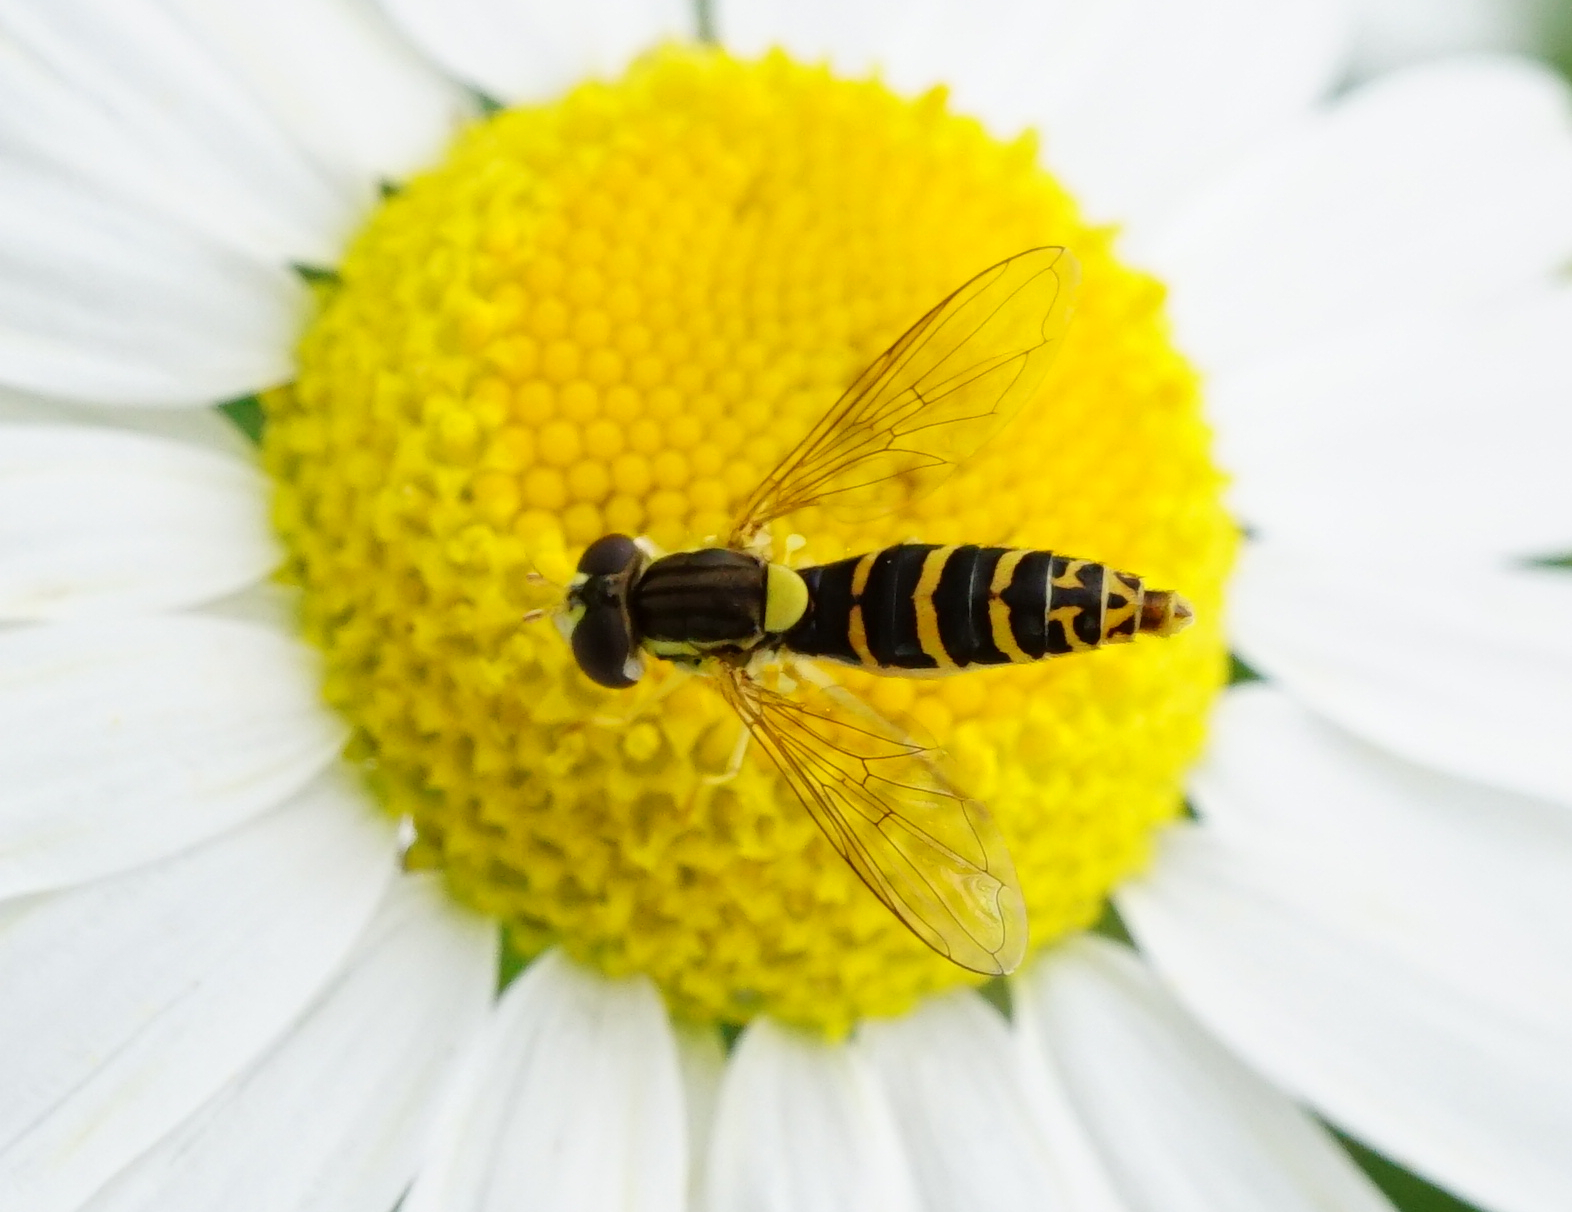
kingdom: Animalia
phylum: Arthropoda
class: Insecta
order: Diptera
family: Syrphidae
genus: Sphaerophoria
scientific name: Sphaerophoria
